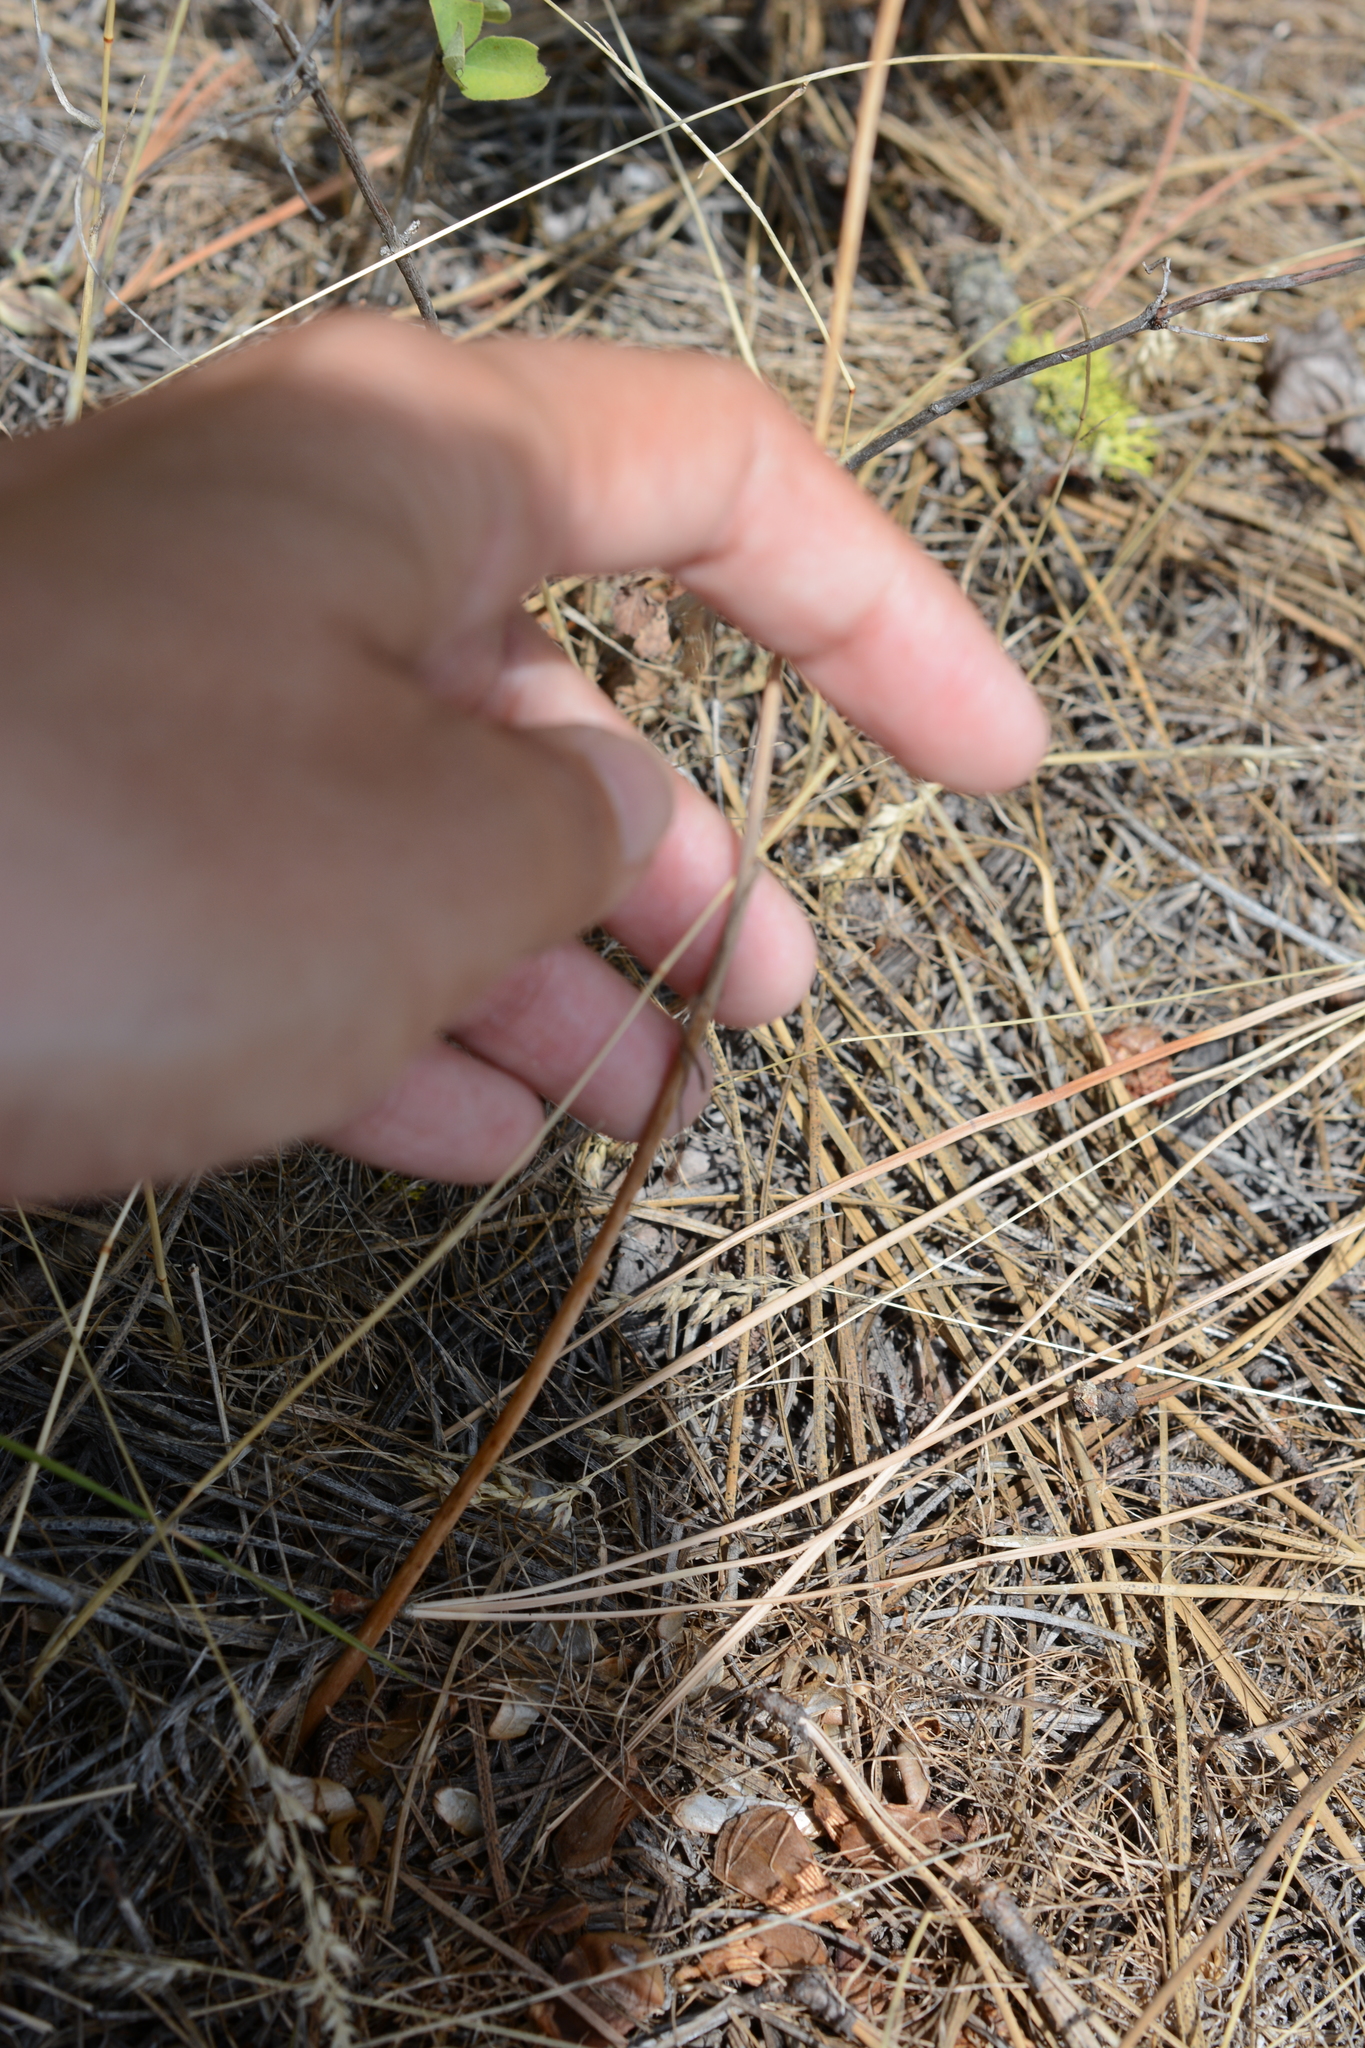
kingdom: Plantae
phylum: Tracheophyta
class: Liliopsida
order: Liliales
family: Liliaceae
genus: Fritillaria
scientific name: Fritillaria pudica
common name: Yellow fritillary
